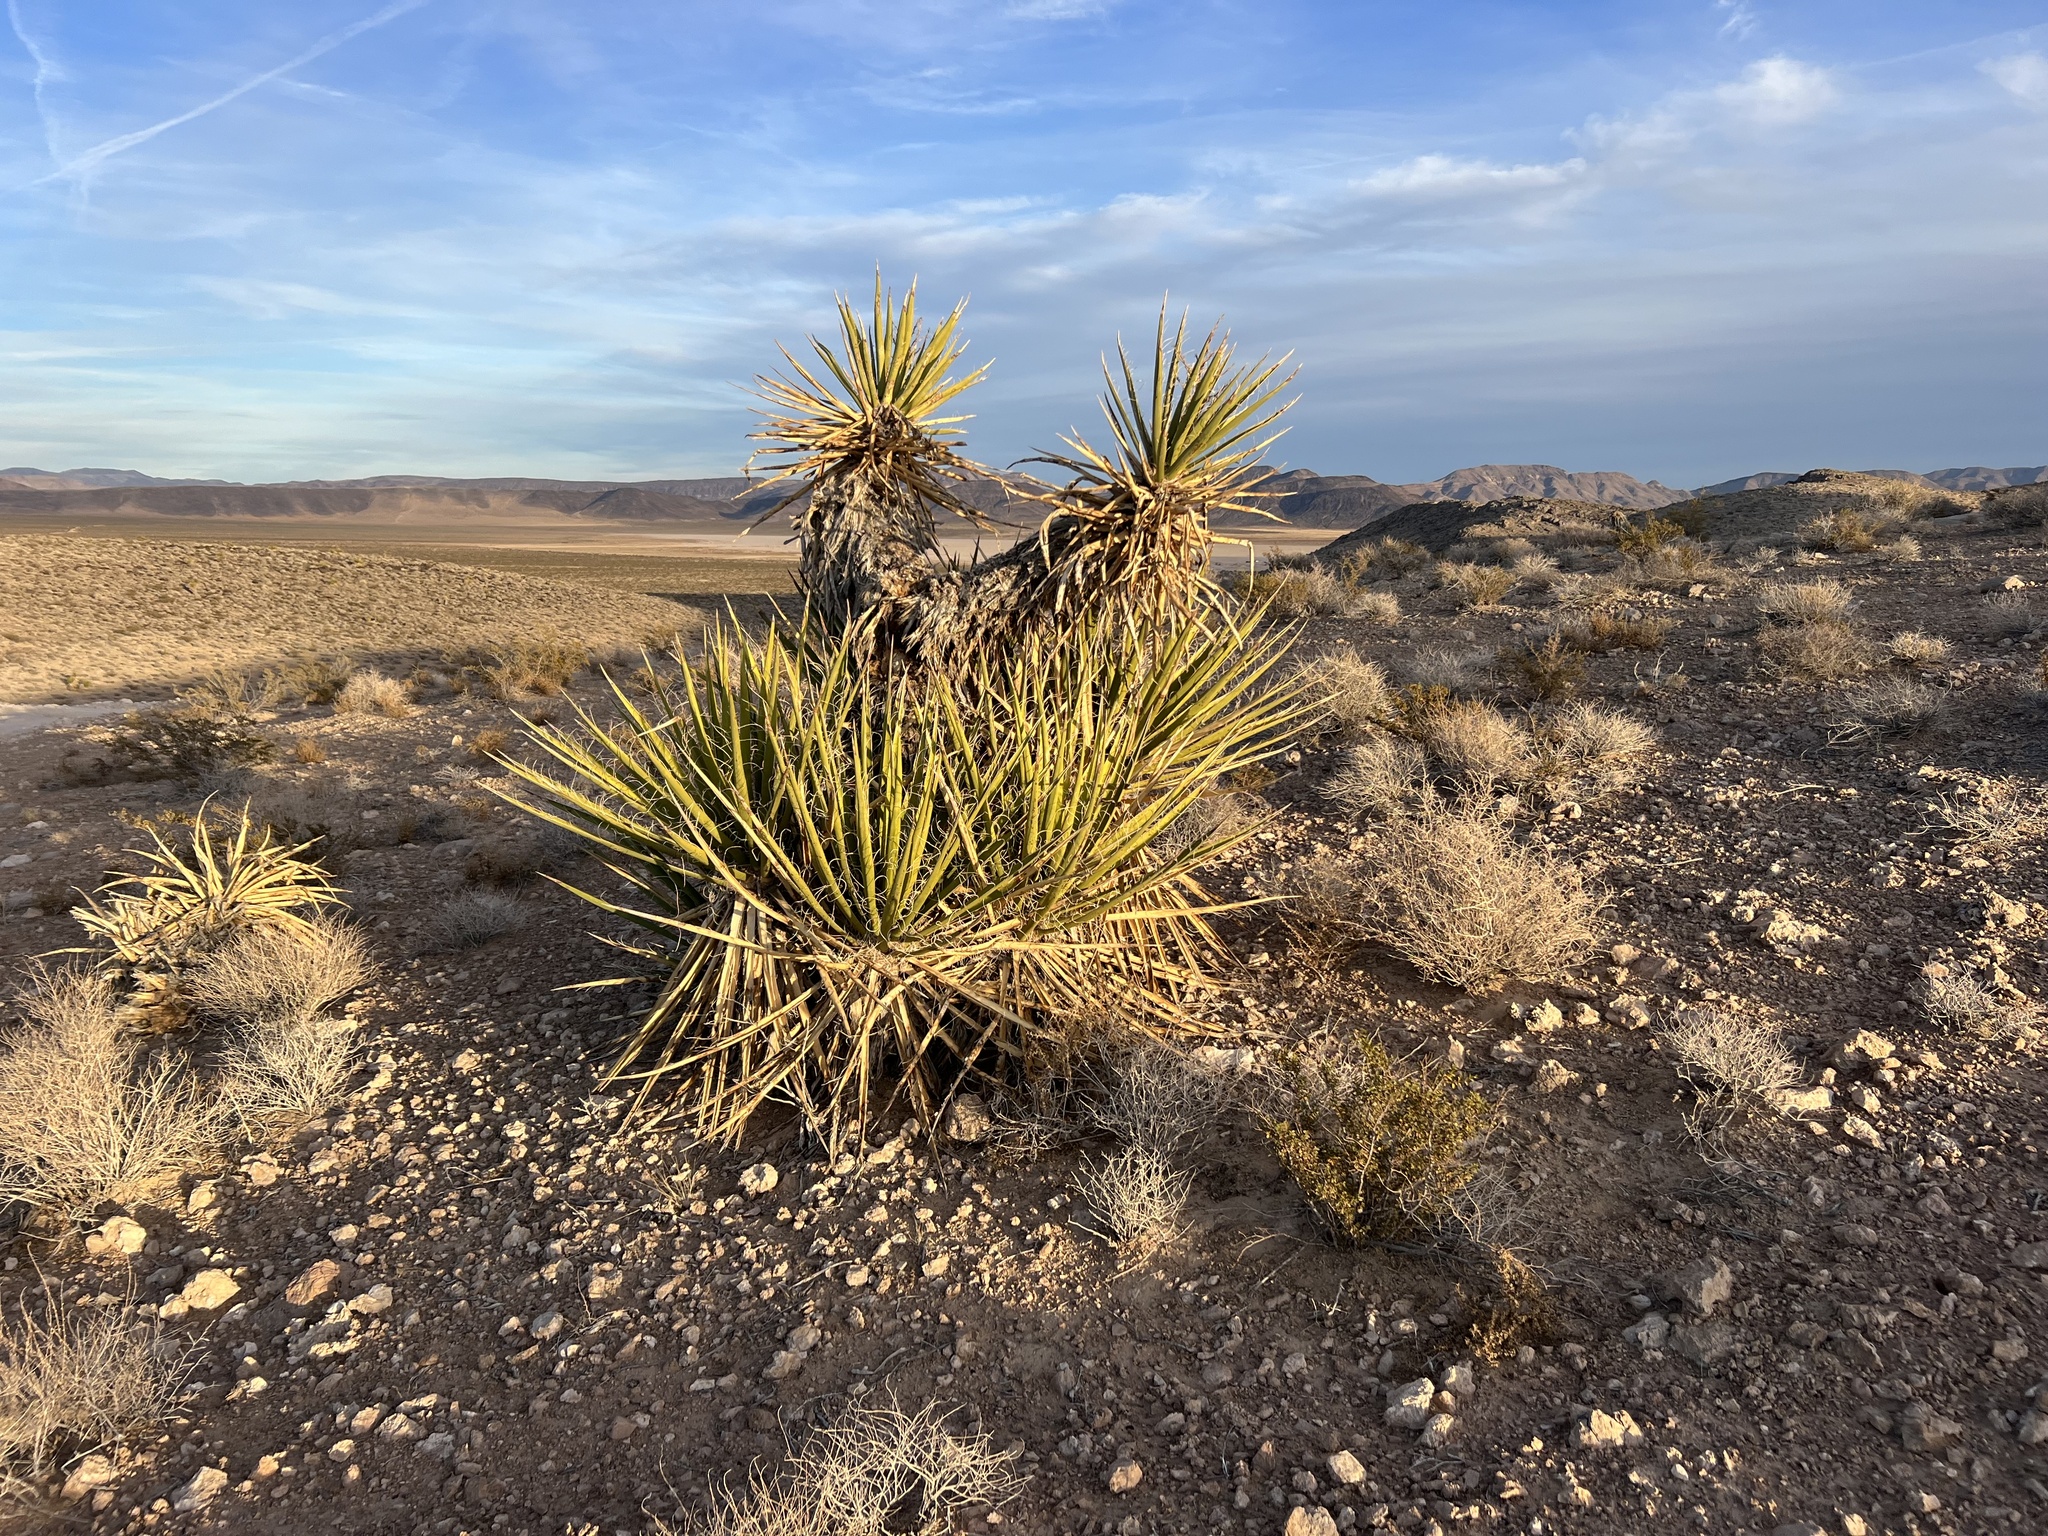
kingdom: Plantae
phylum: Tracheophyta
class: Liliopsida
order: Asparagales
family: Asparagaceae
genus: Yucca
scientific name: Yucca schidigera
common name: Mojave yucca
